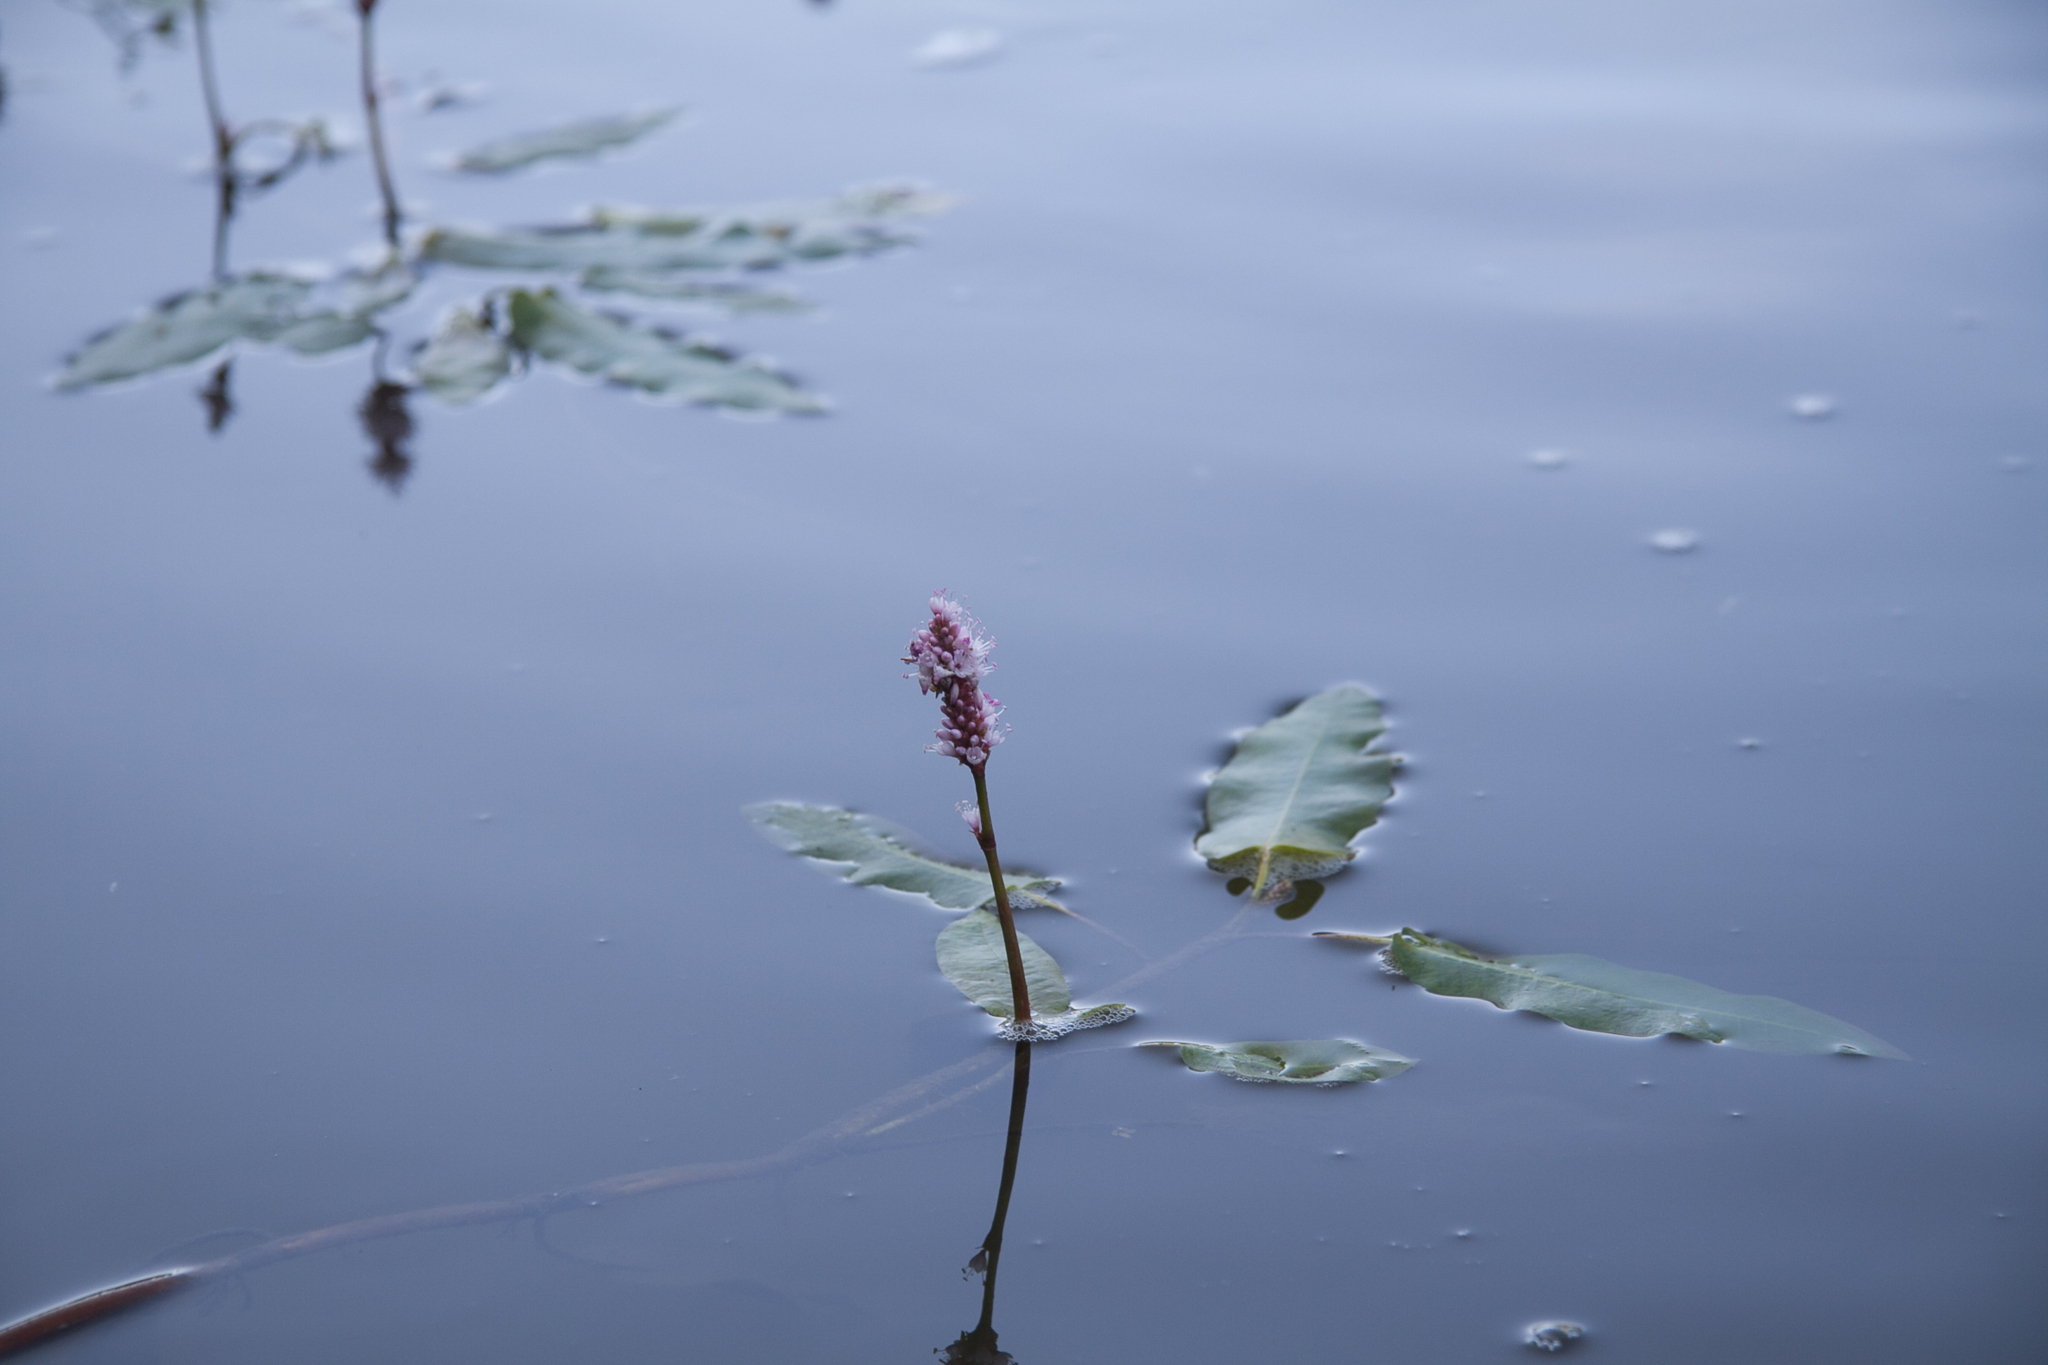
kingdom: Plantae
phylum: Tracheophyta
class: Magnoliopsida
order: Caryophyllales
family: Polygonaceae
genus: Persicaria
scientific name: Persicaria amphibia
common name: Amphibious bistort
